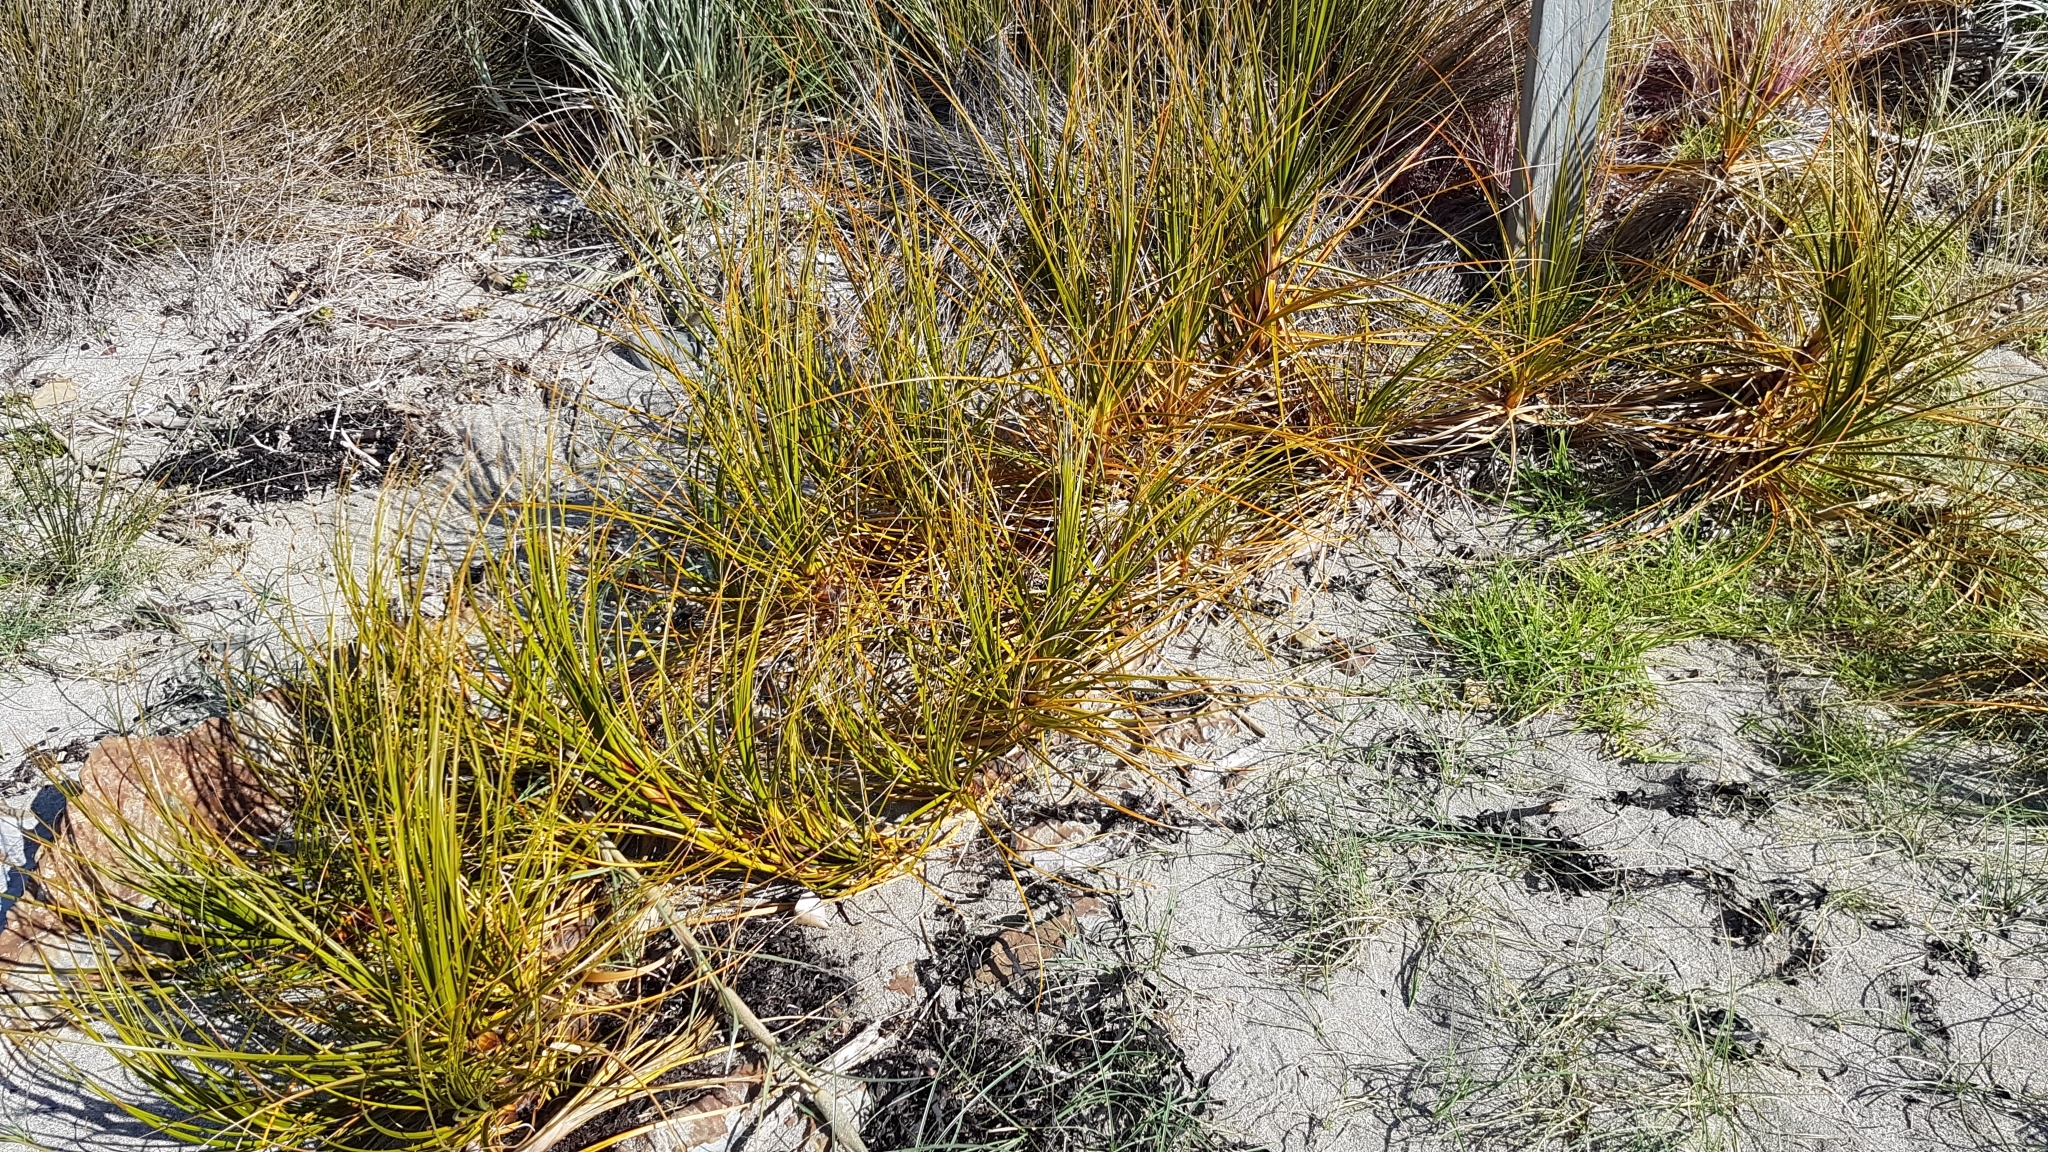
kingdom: Plantae
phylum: Tracheophyta
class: Liliopsida
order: Poales
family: Cyperaceae
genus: Ficinia
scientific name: Ficinia spiralis
